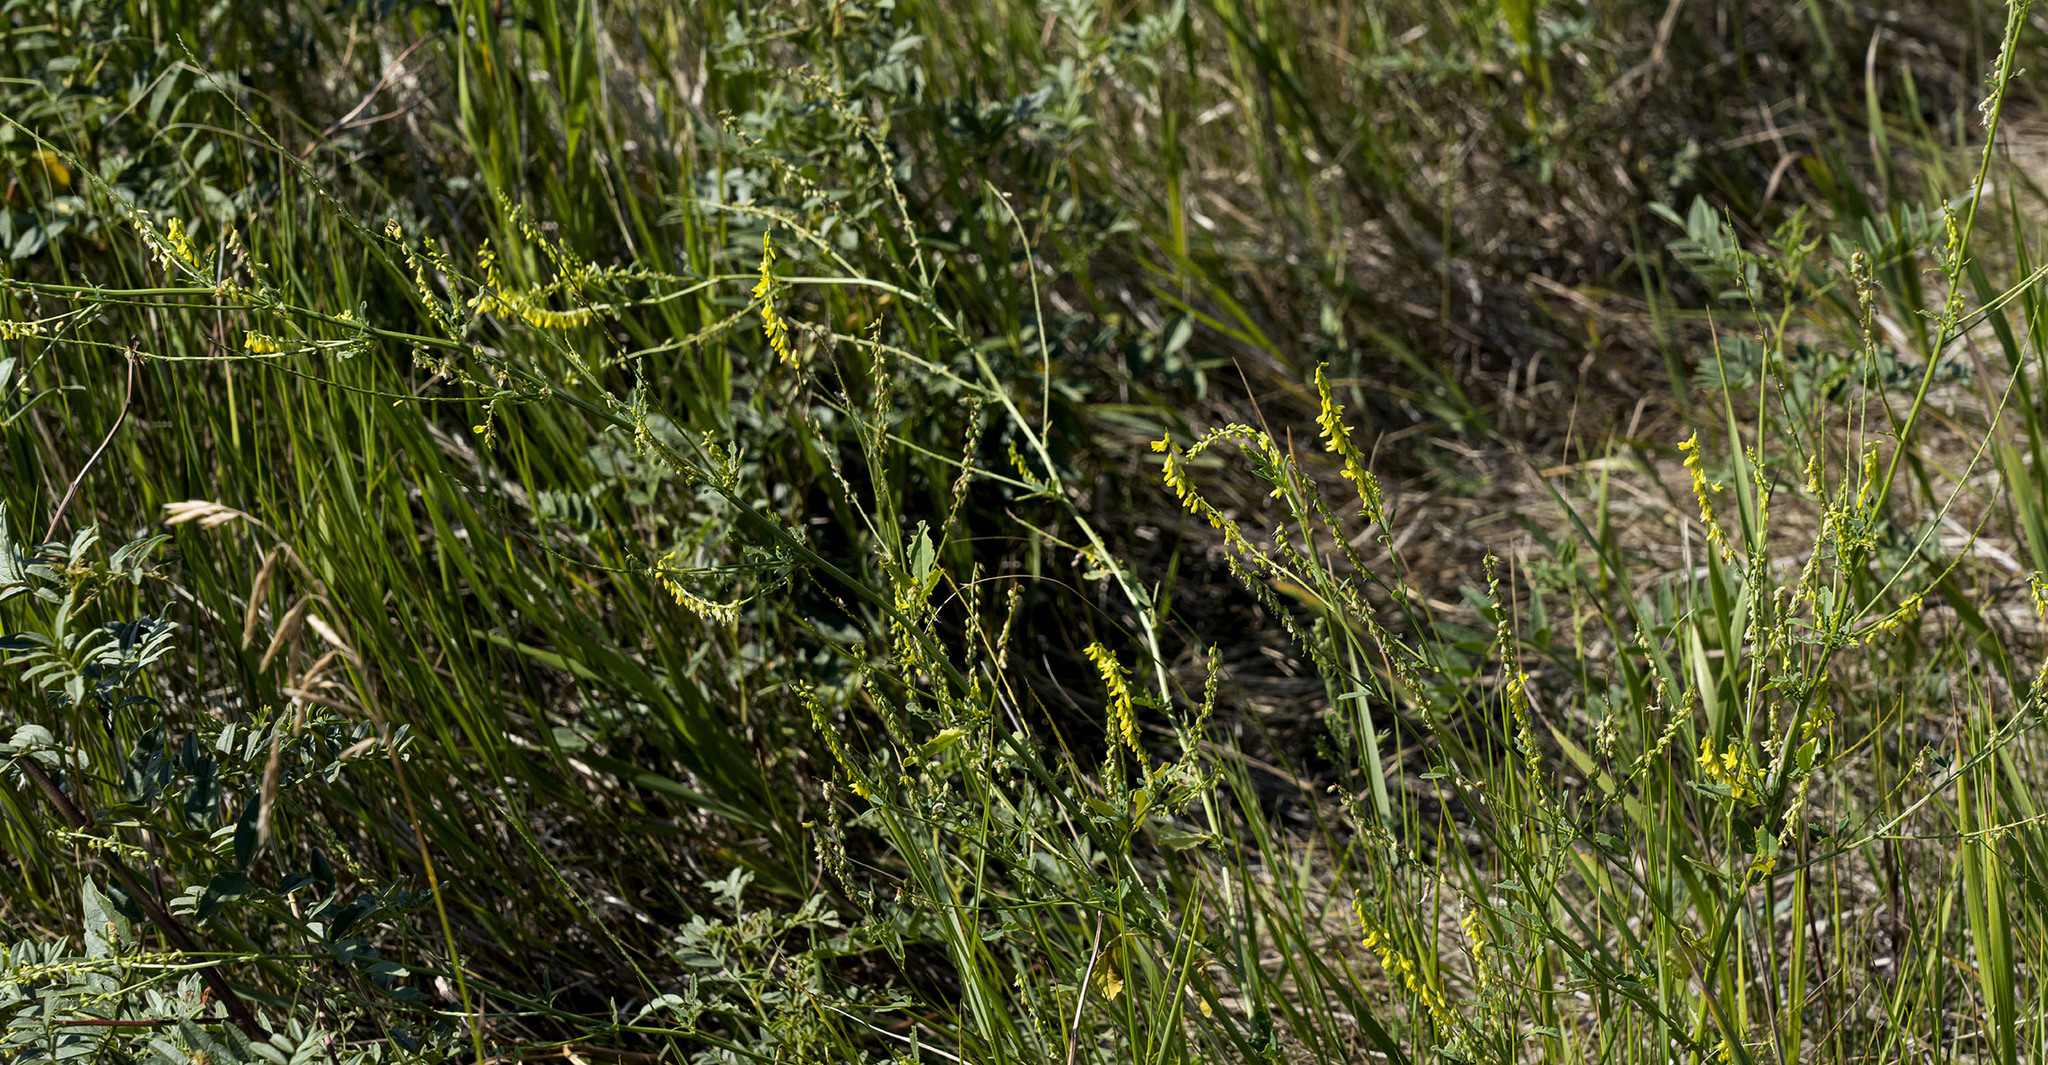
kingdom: Plantae
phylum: Tracheophyta
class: Magnoliopsida
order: Fabales
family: Fabaceae
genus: Melilotus
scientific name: Melilotus officinalis
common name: Sweetclover
